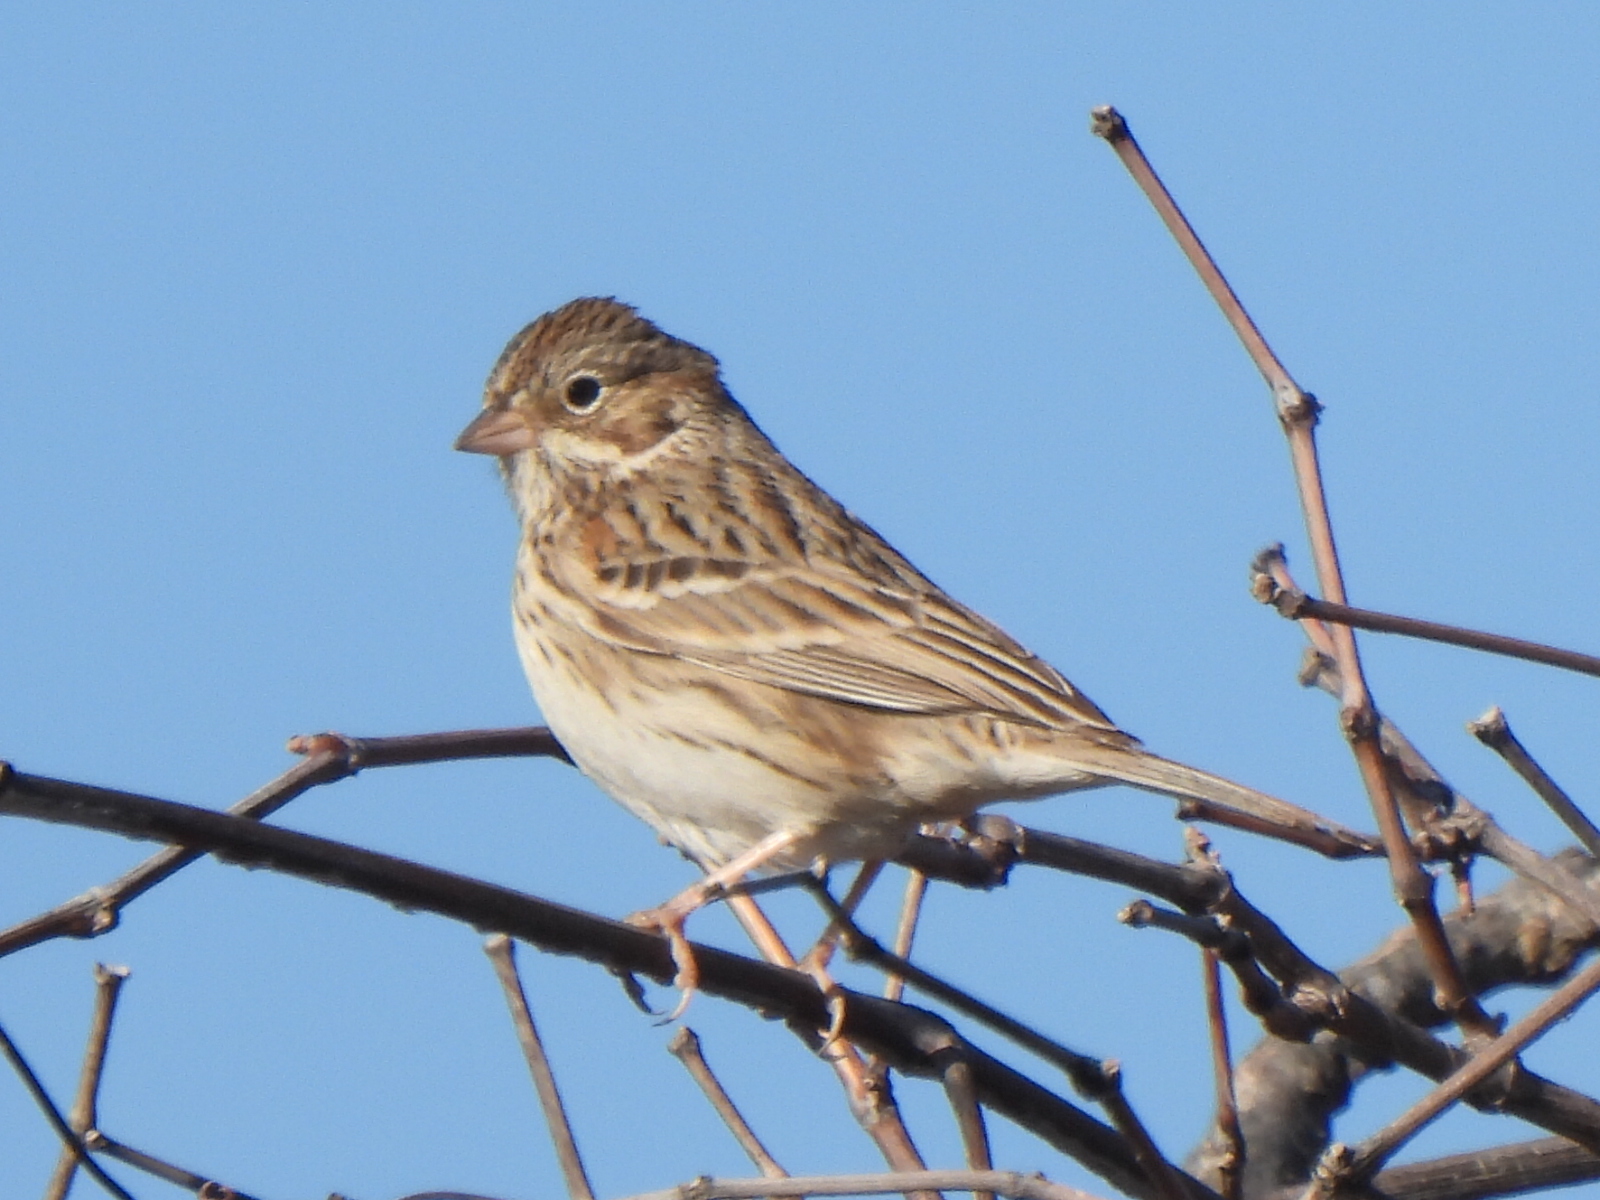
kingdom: Animalia
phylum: Chordata
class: Aves
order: Passeriformes
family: Passerellidae
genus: Pooecetes
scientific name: Pooecetes gramineus
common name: Vesper sparrow
